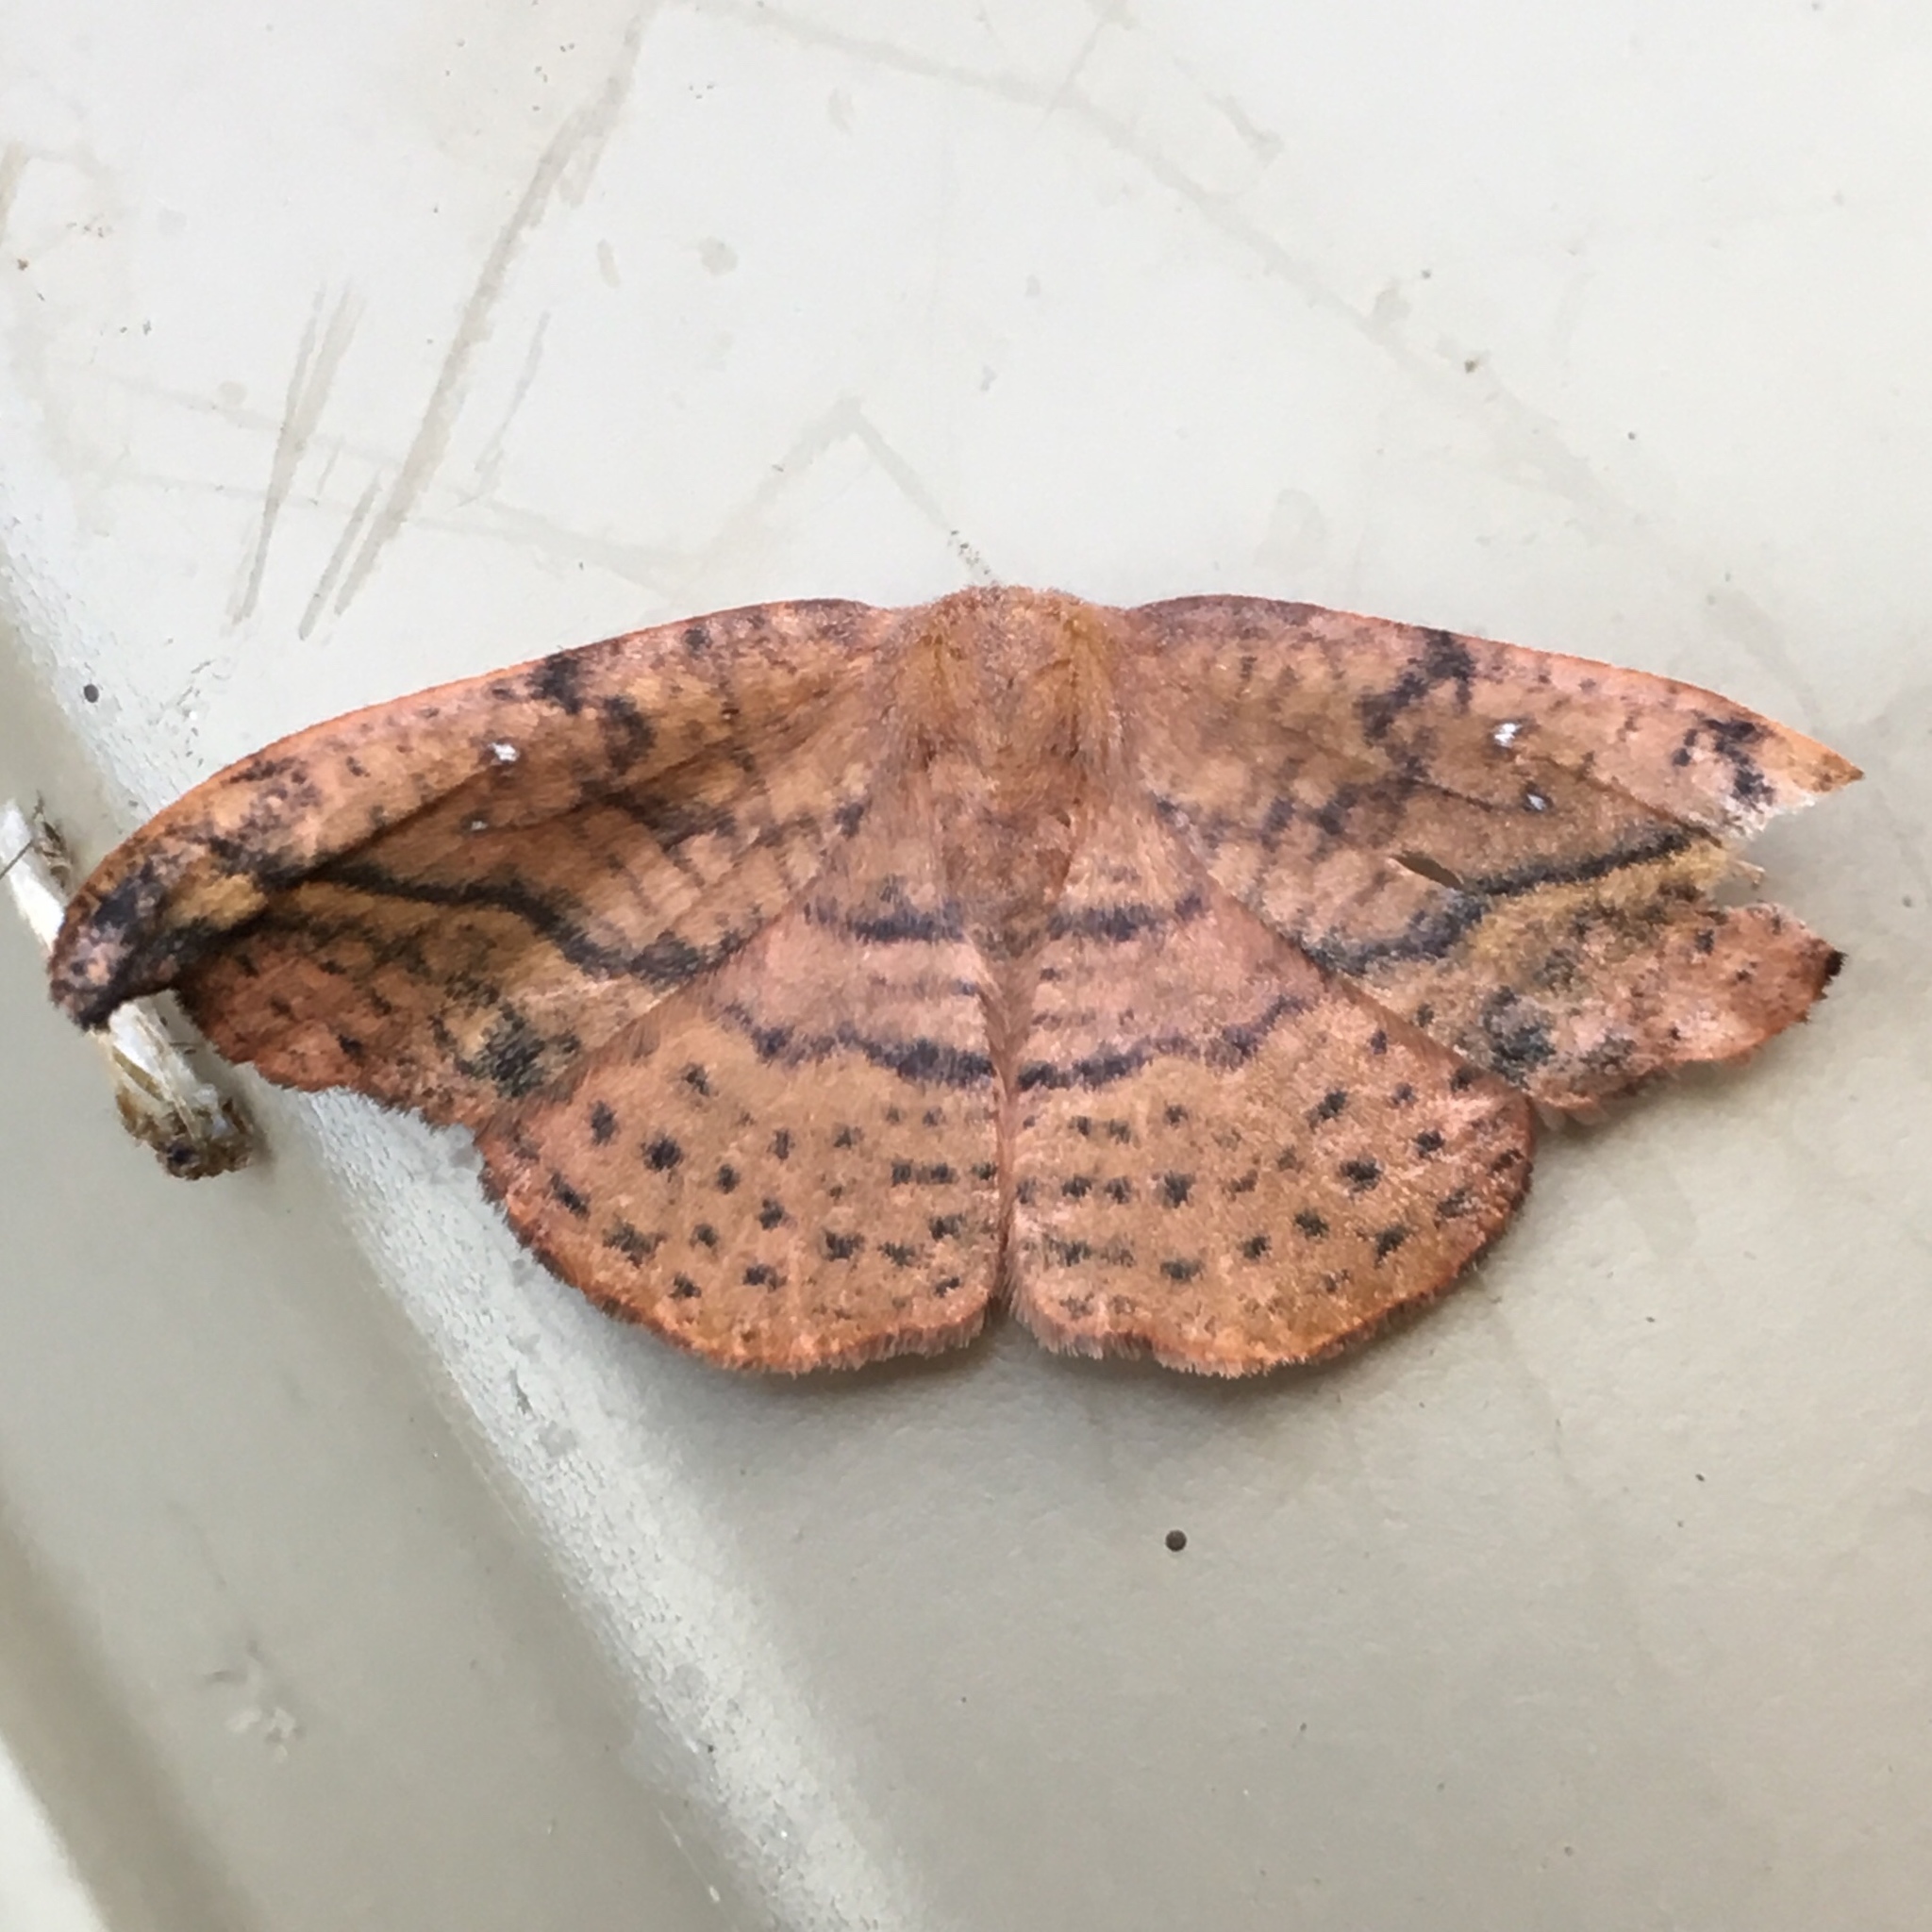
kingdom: Animalia
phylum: Arthropoda
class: Insecta
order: Lepidoptera
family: Drepanidae
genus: Oreta
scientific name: Oreta rosea
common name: Rose hooktip
